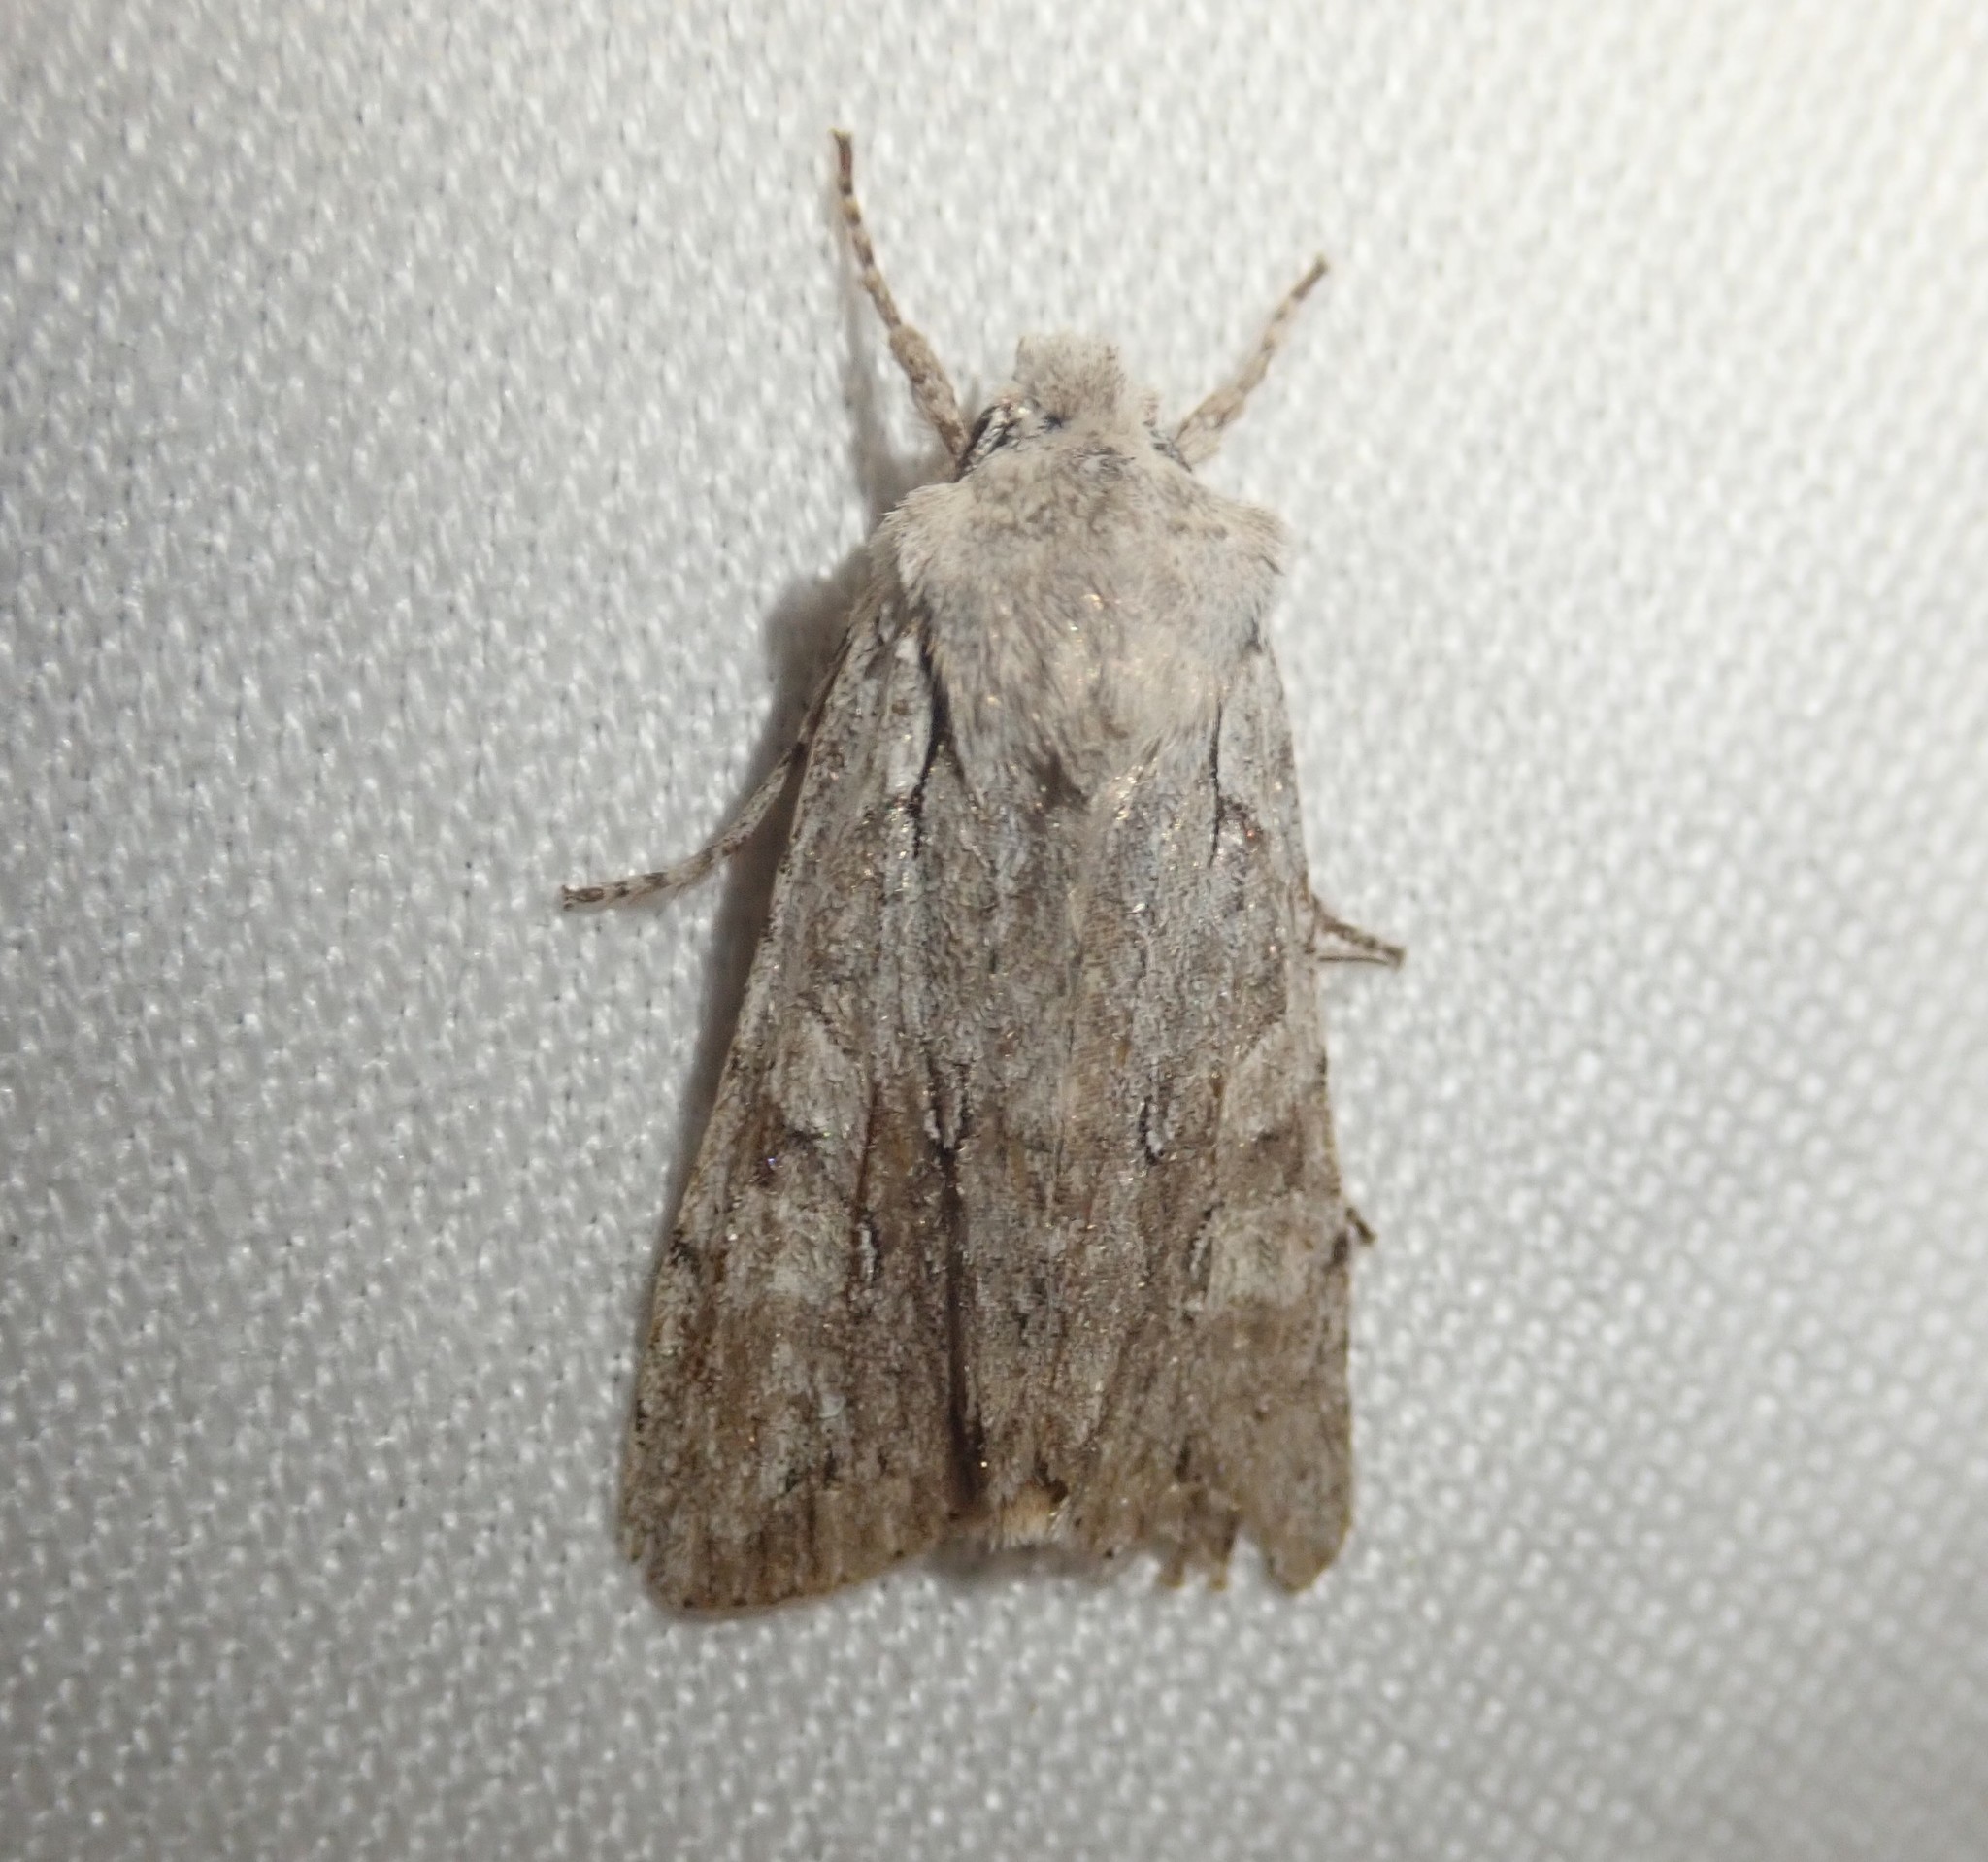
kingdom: Animalia
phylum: Arthropoda
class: Insecta
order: Lepidoptera
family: Noctuidae
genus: Lithophane
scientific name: Lithophane ornitopus
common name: Grey shoulder-knot
